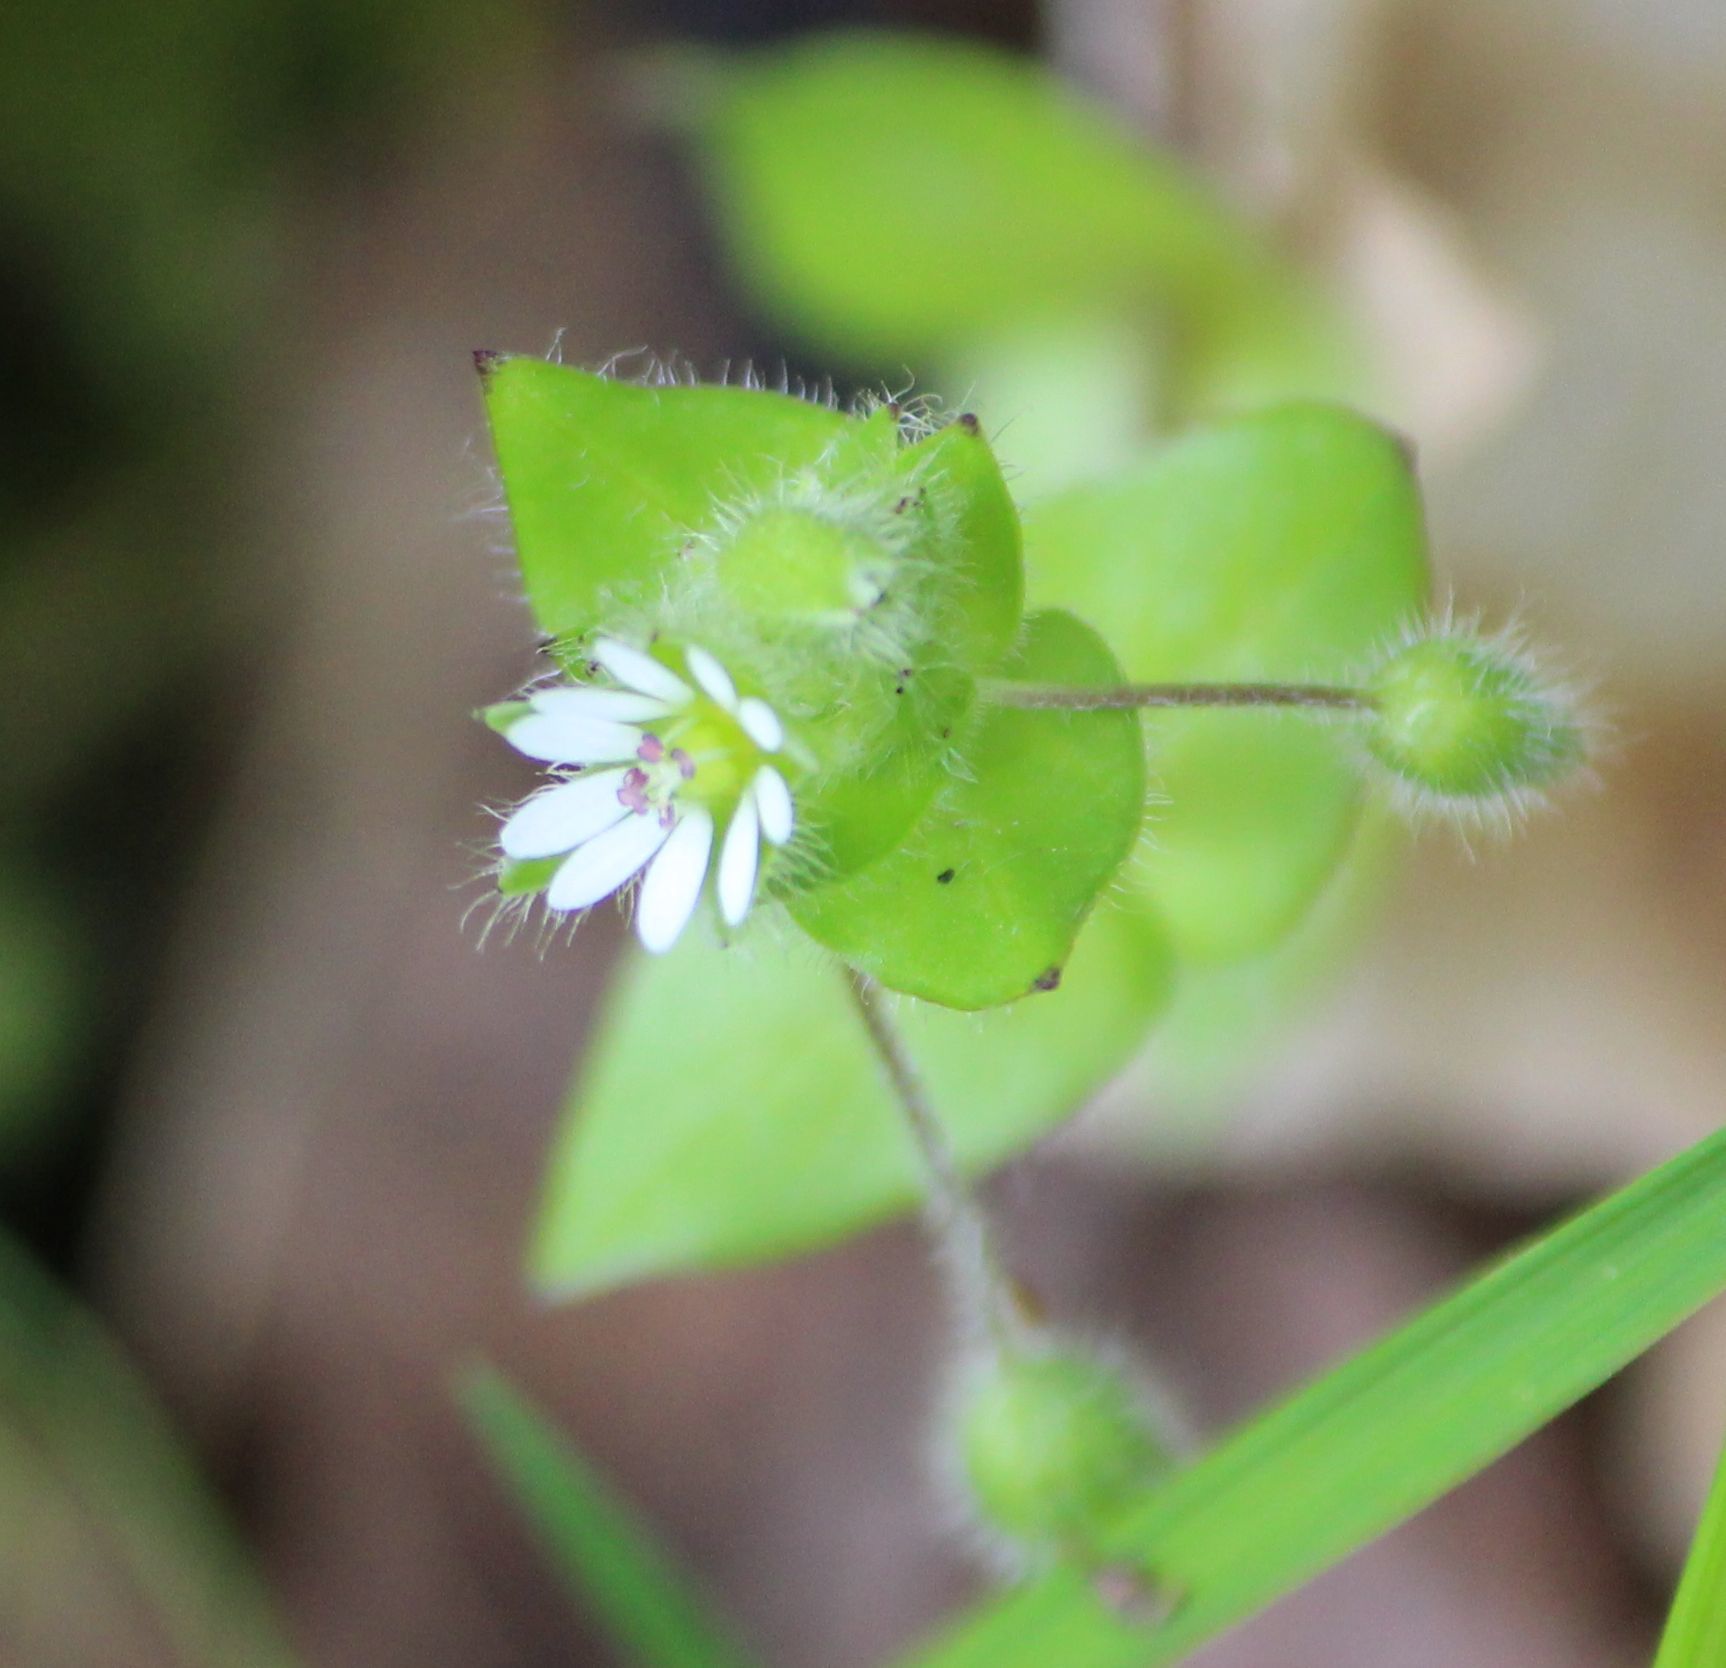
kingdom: Plantae
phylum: Tracheophyta
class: Magnoliopsida
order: Caryophyllales
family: Caryophyllaceae
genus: Stellaria
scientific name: Stellaria media
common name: Common chickweed
